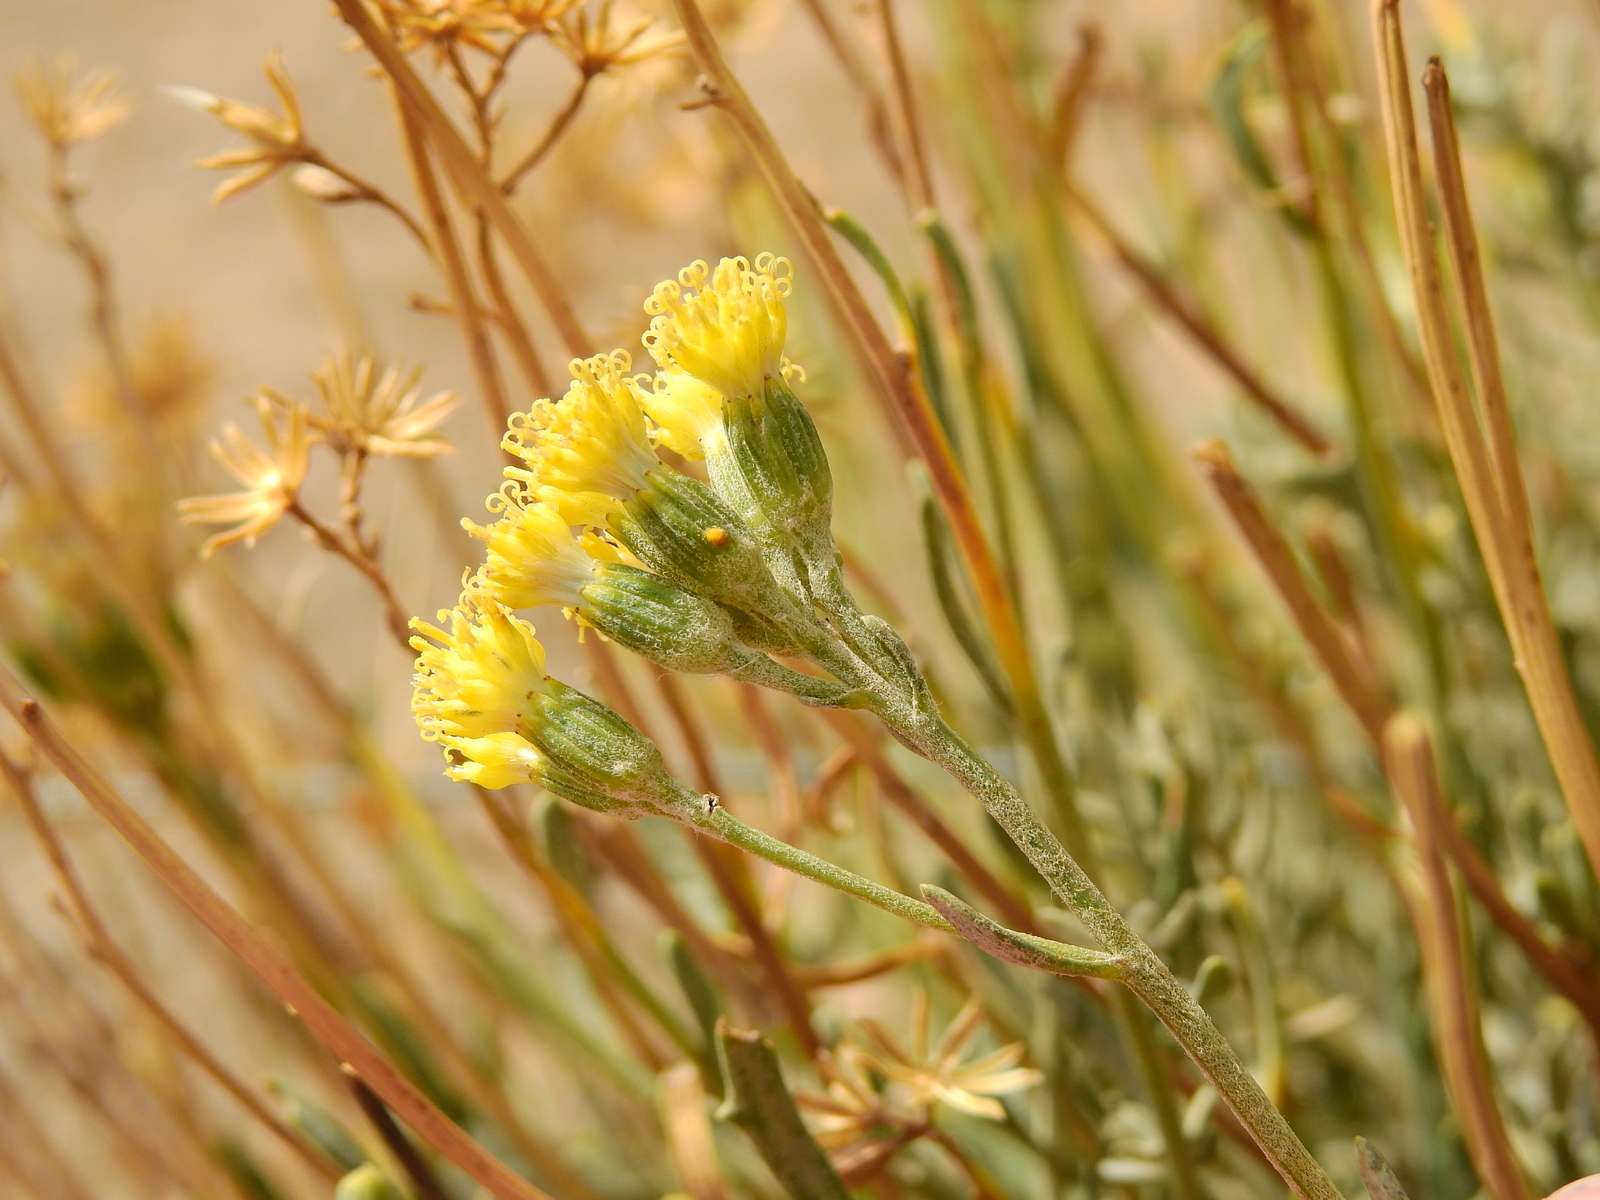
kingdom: Plantae
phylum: Tracheophyta
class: Magnoliopsida
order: Asterales
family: Asteraceae
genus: Senecio
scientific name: Senecio covasii
